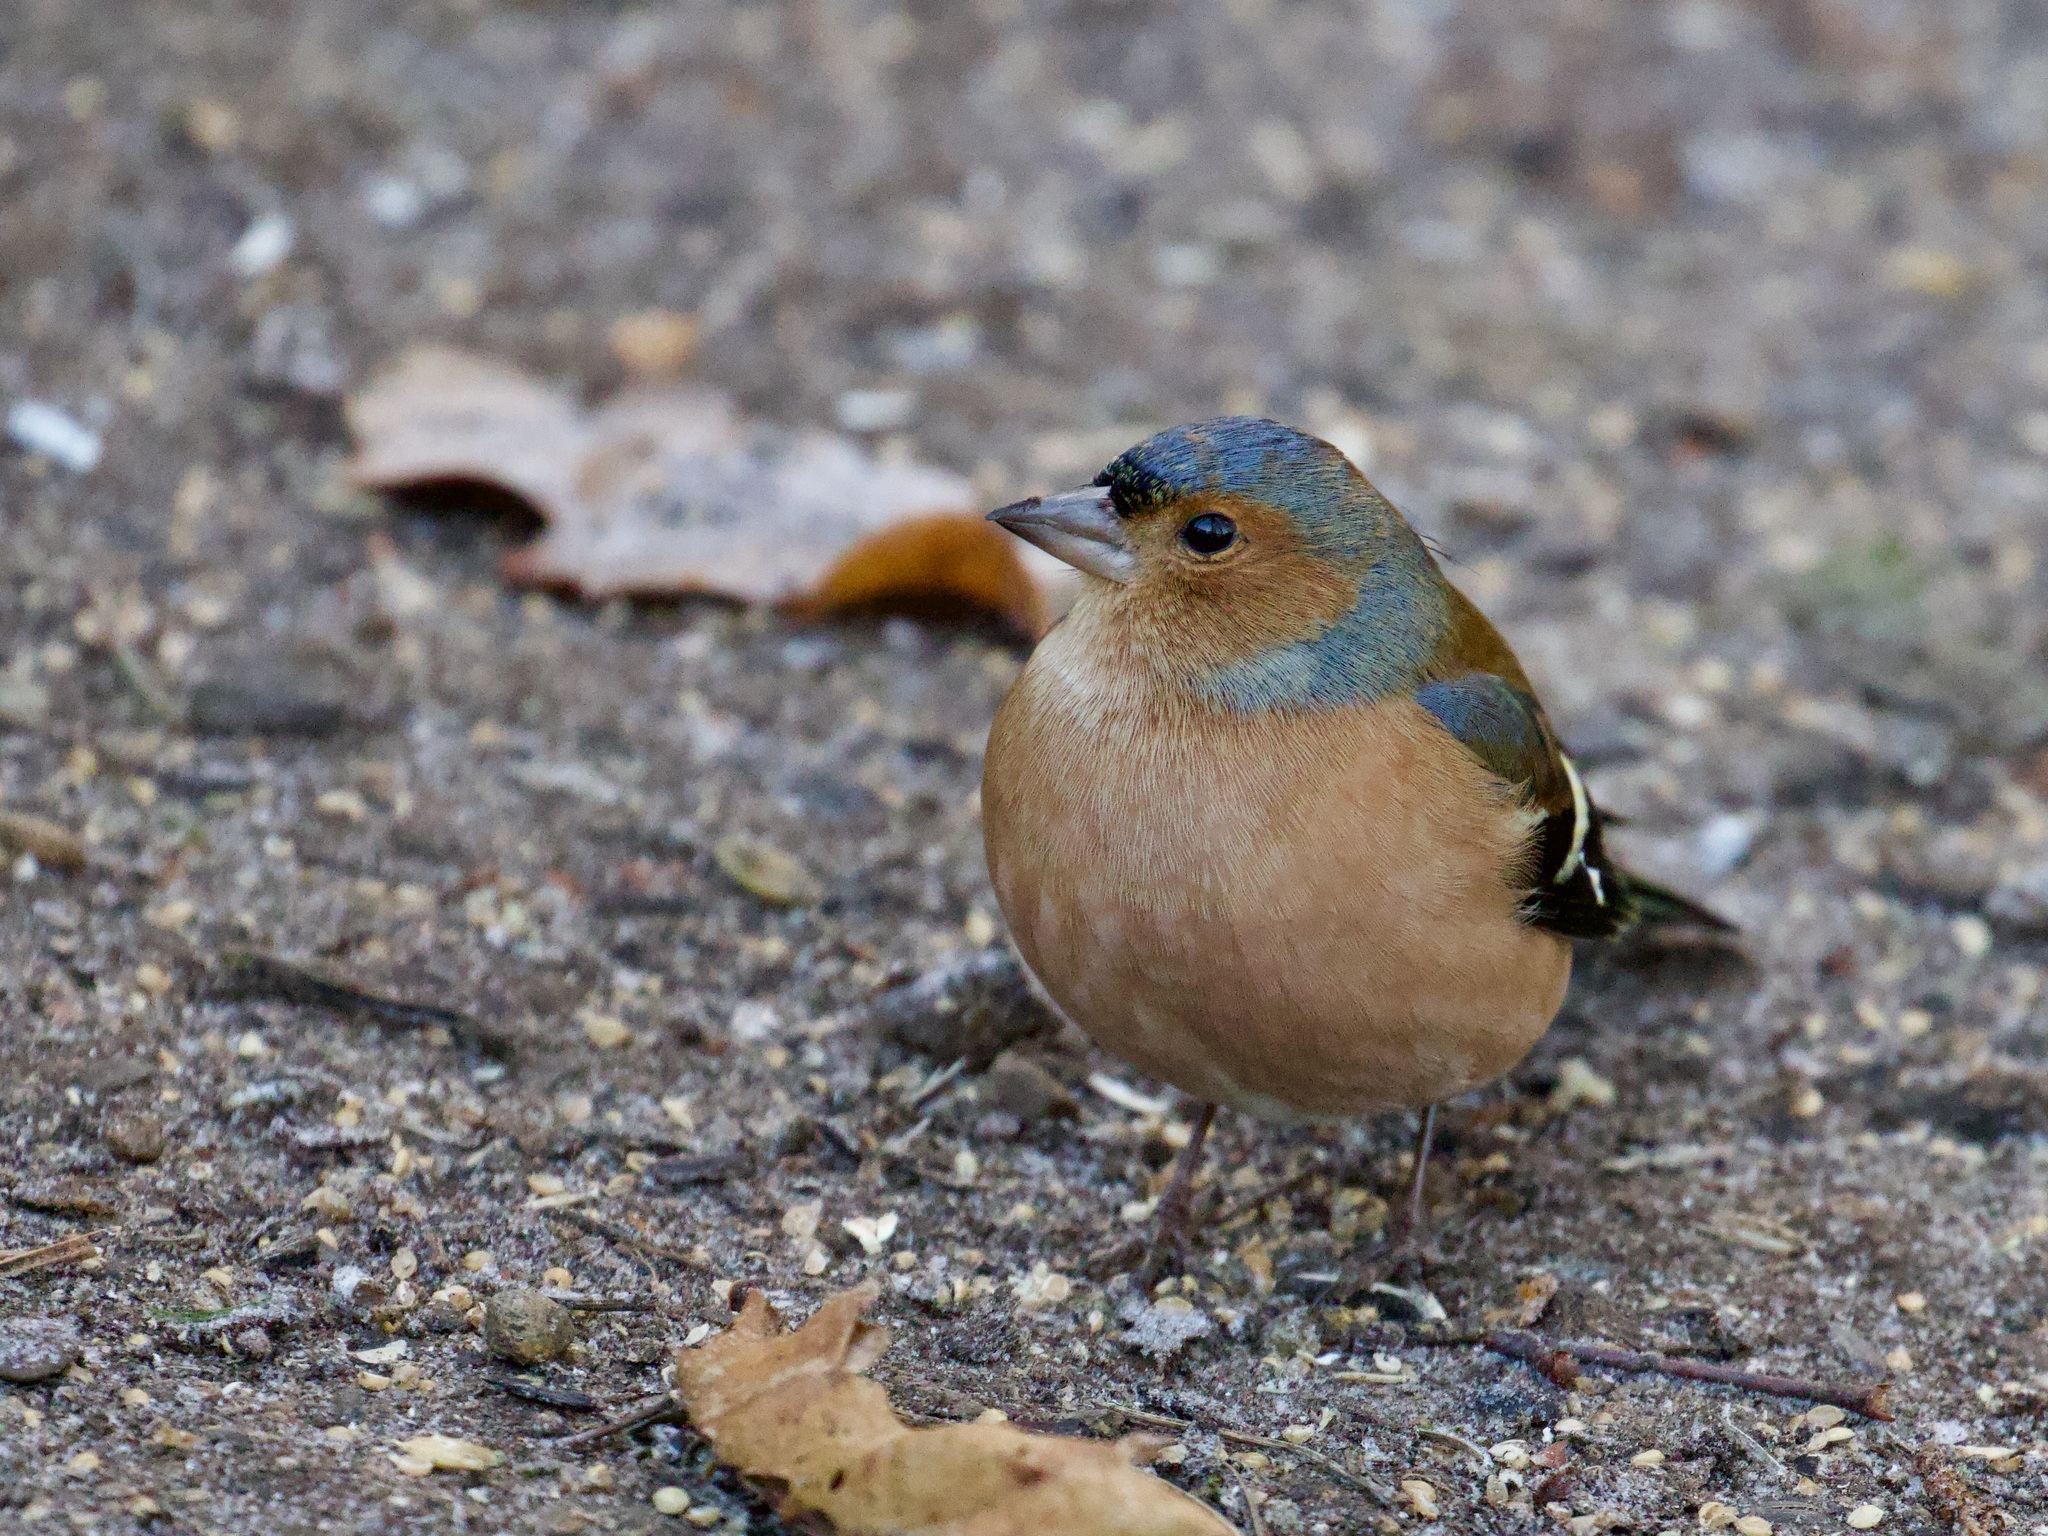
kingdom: Animalia
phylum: Chordata
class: Aves
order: Passeriformes
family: Fringillidae
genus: Fringilla
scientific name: Fringilla coelebs
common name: Common chaffinch
